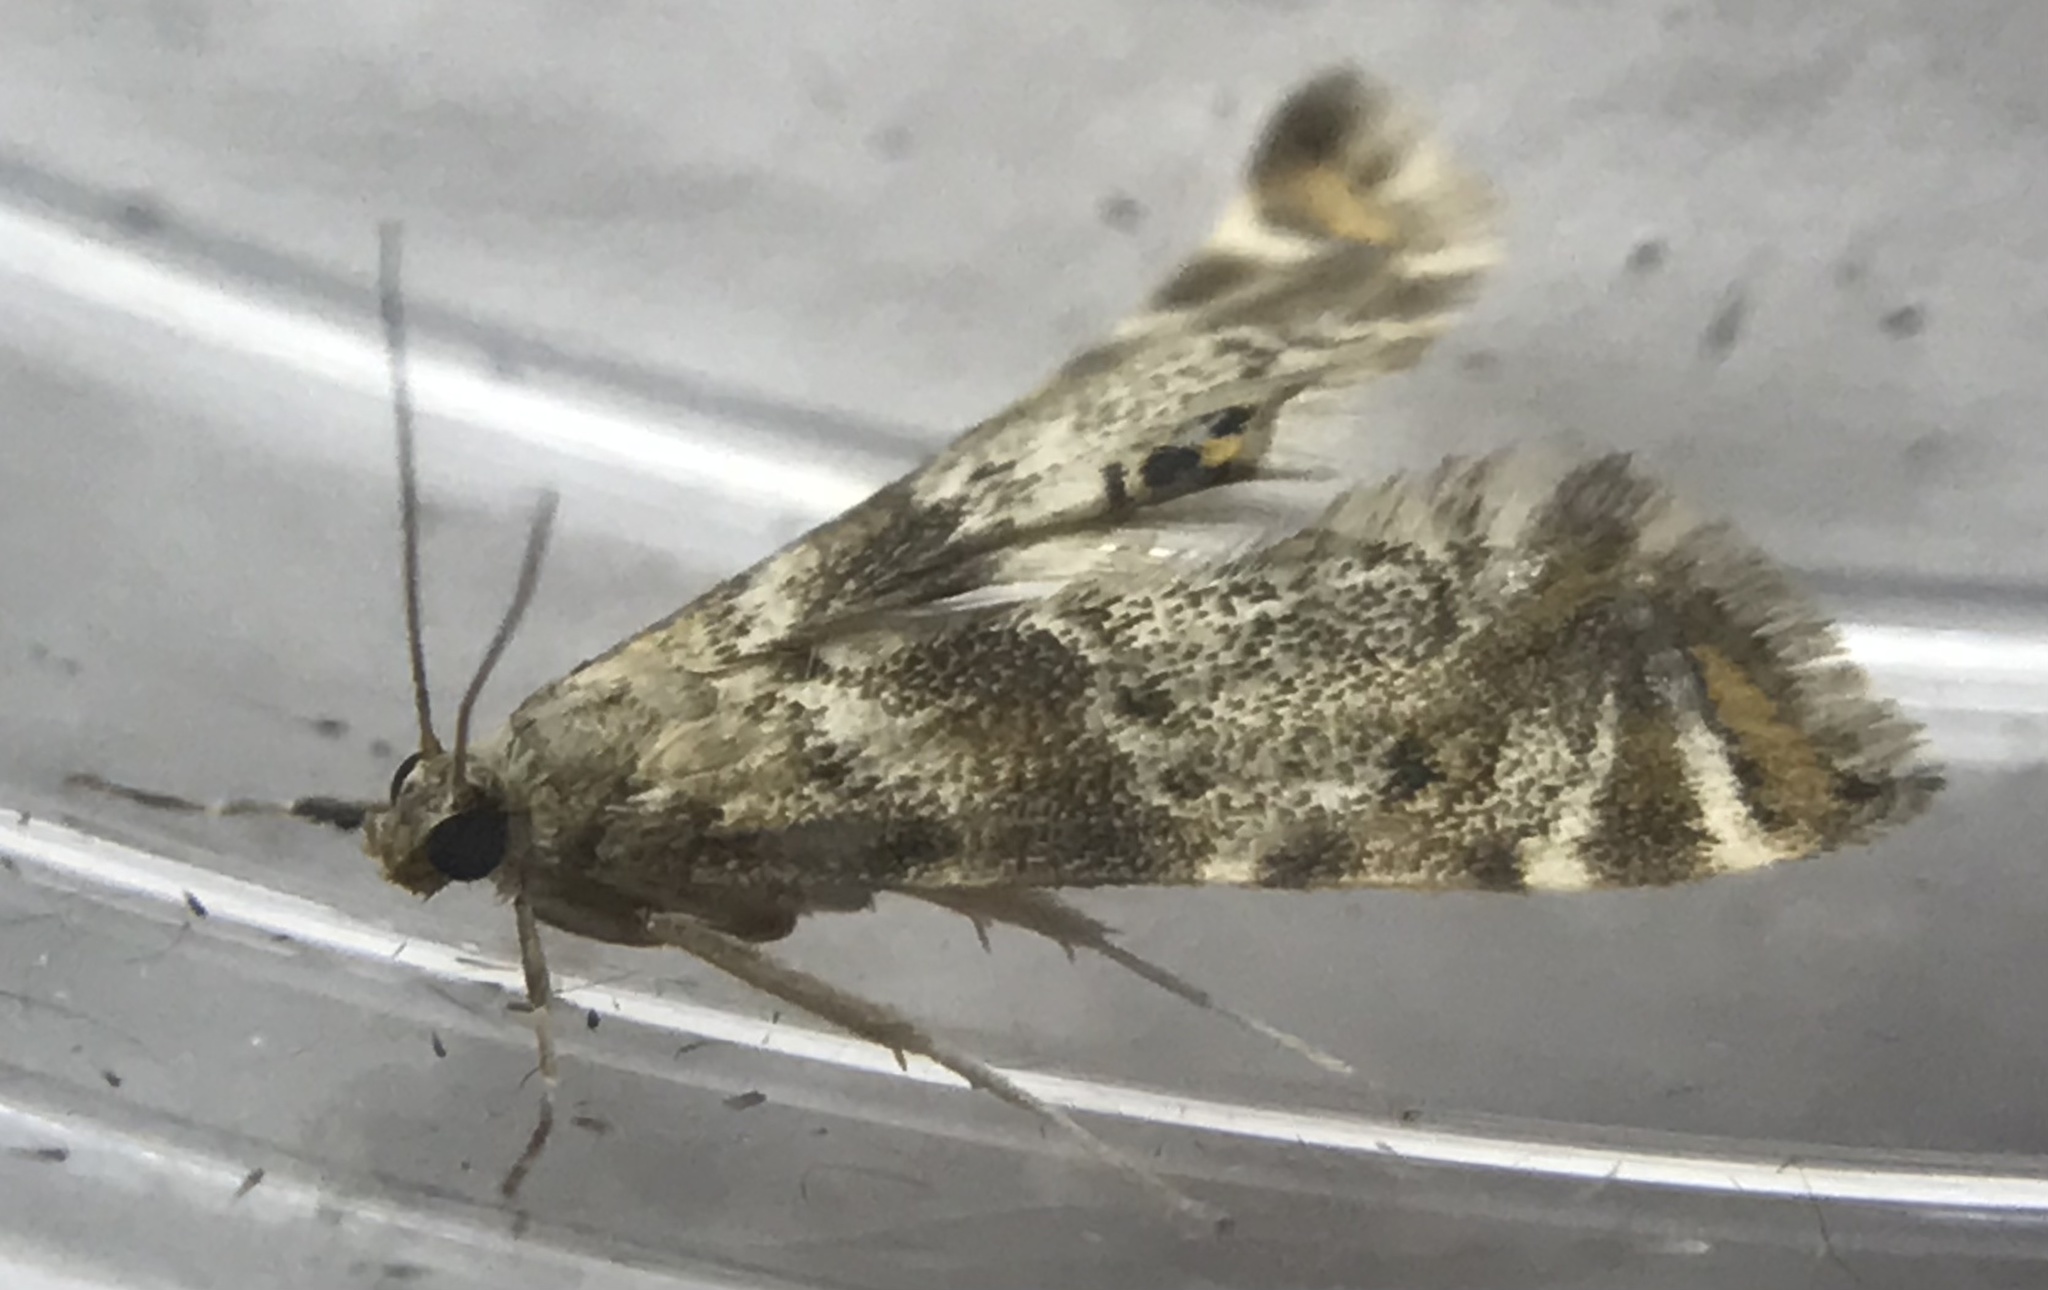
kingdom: Animalia
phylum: Arthropoda
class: Insecta
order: Lepidoptera
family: Crambidae
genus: Petrophila
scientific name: Petrophila fulicalis
